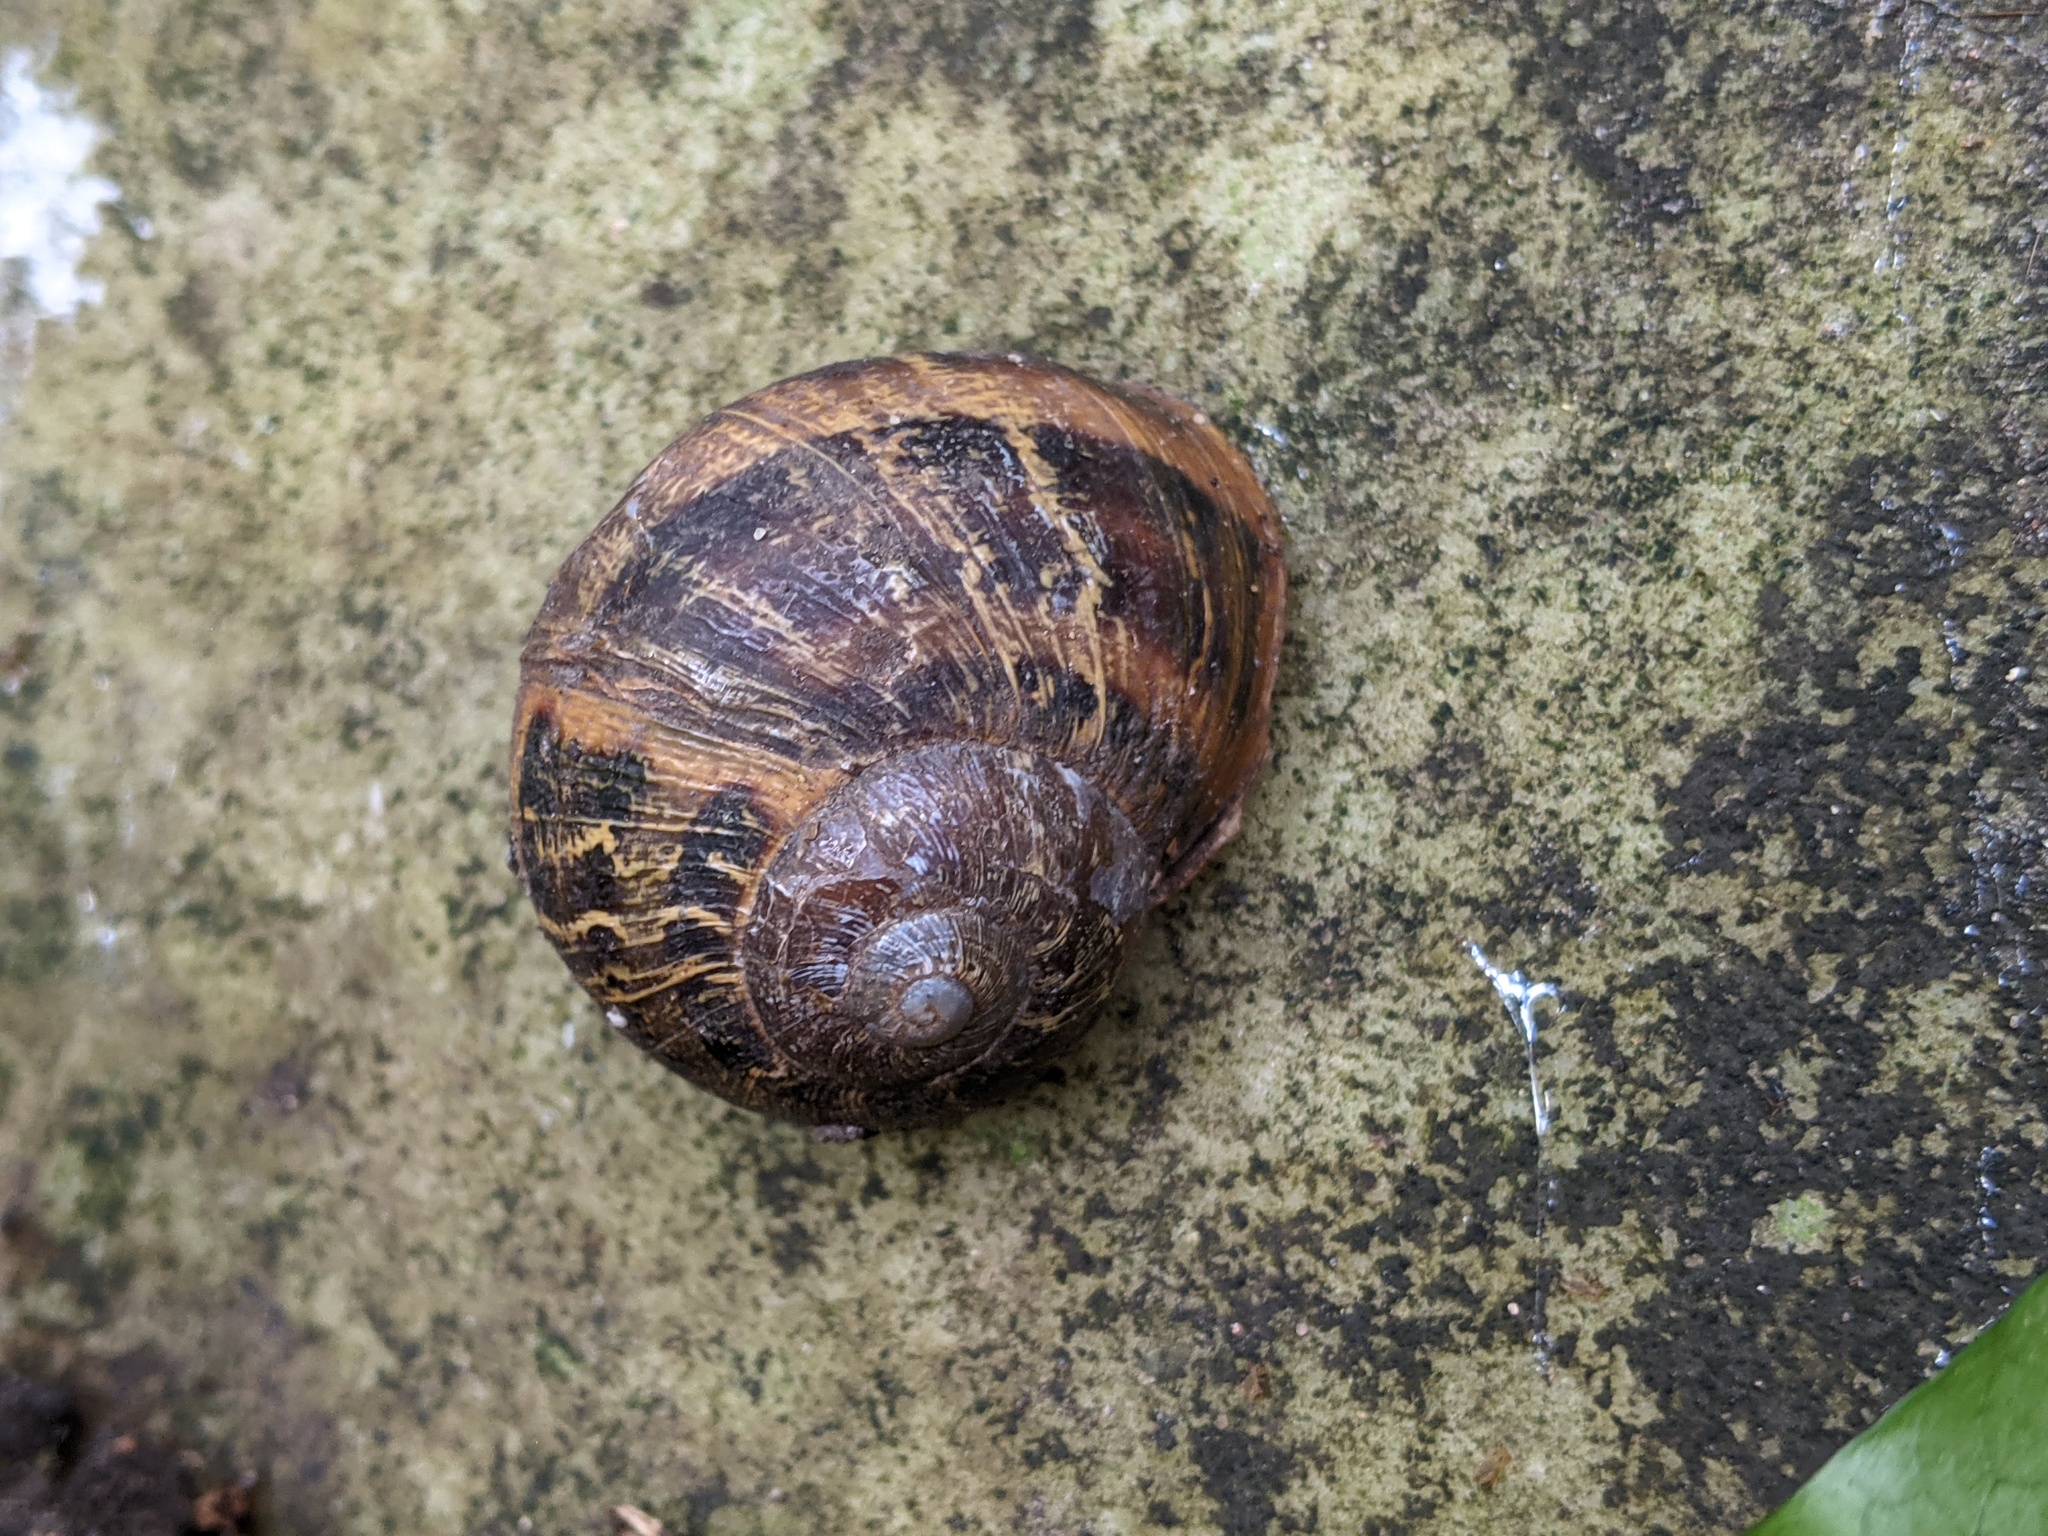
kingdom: Animalia
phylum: Mollusca
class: Gastropoda
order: Stylommatophora
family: Helicidae
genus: Cornu
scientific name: Cornu aspersum
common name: Brown garden snail
